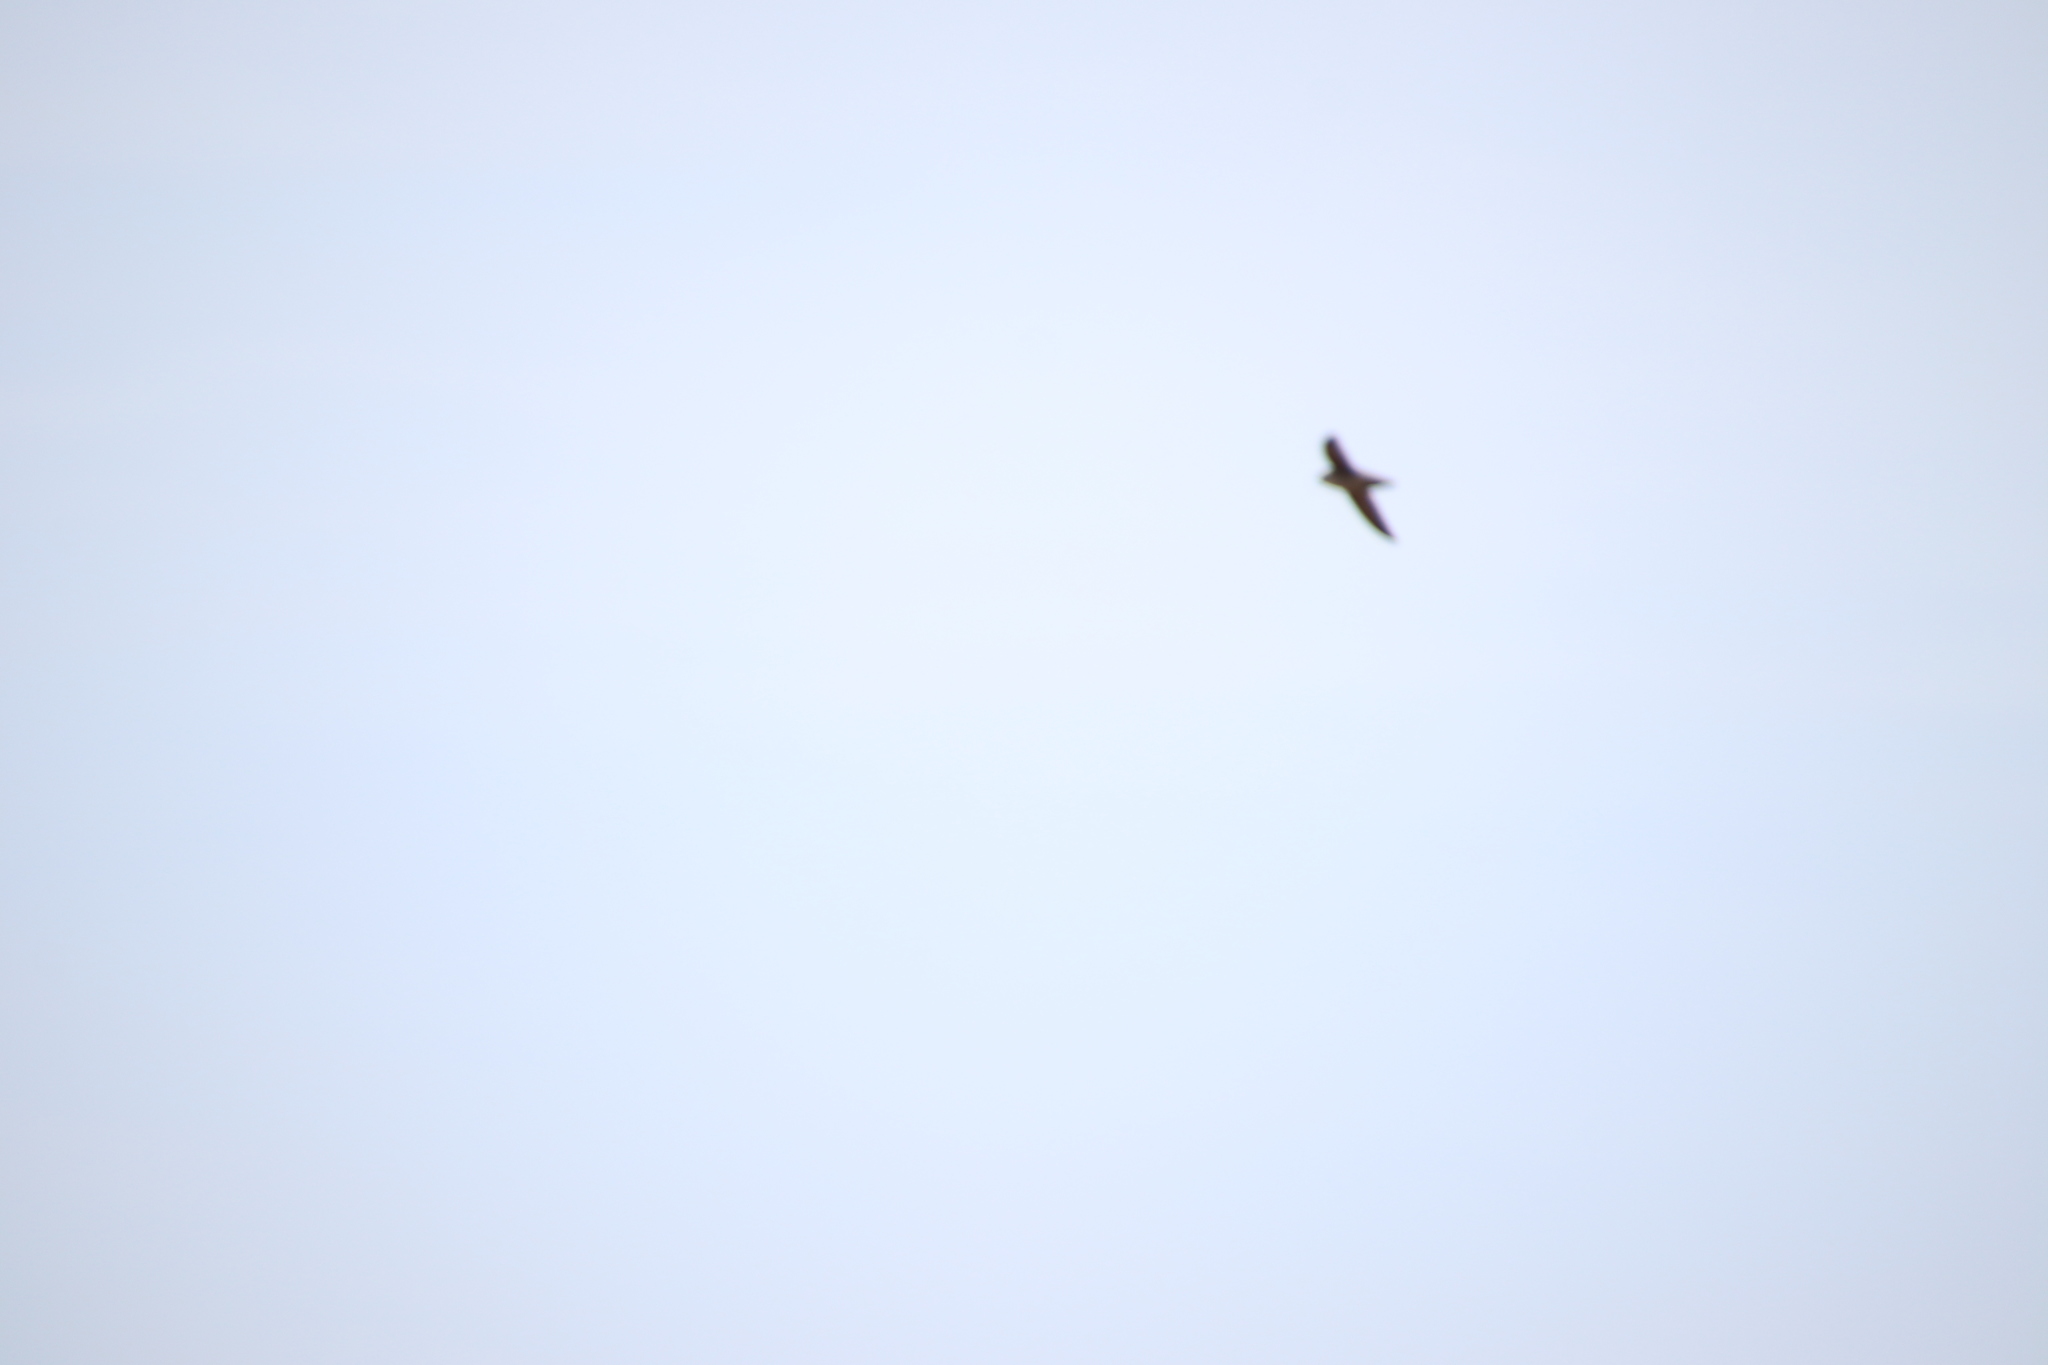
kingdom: Animalia
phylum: Chordata
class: Aves
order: Apodiformes
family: Apodidae
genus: Chaetura
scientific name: Chaetura vauxi
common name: Vaux's swift
